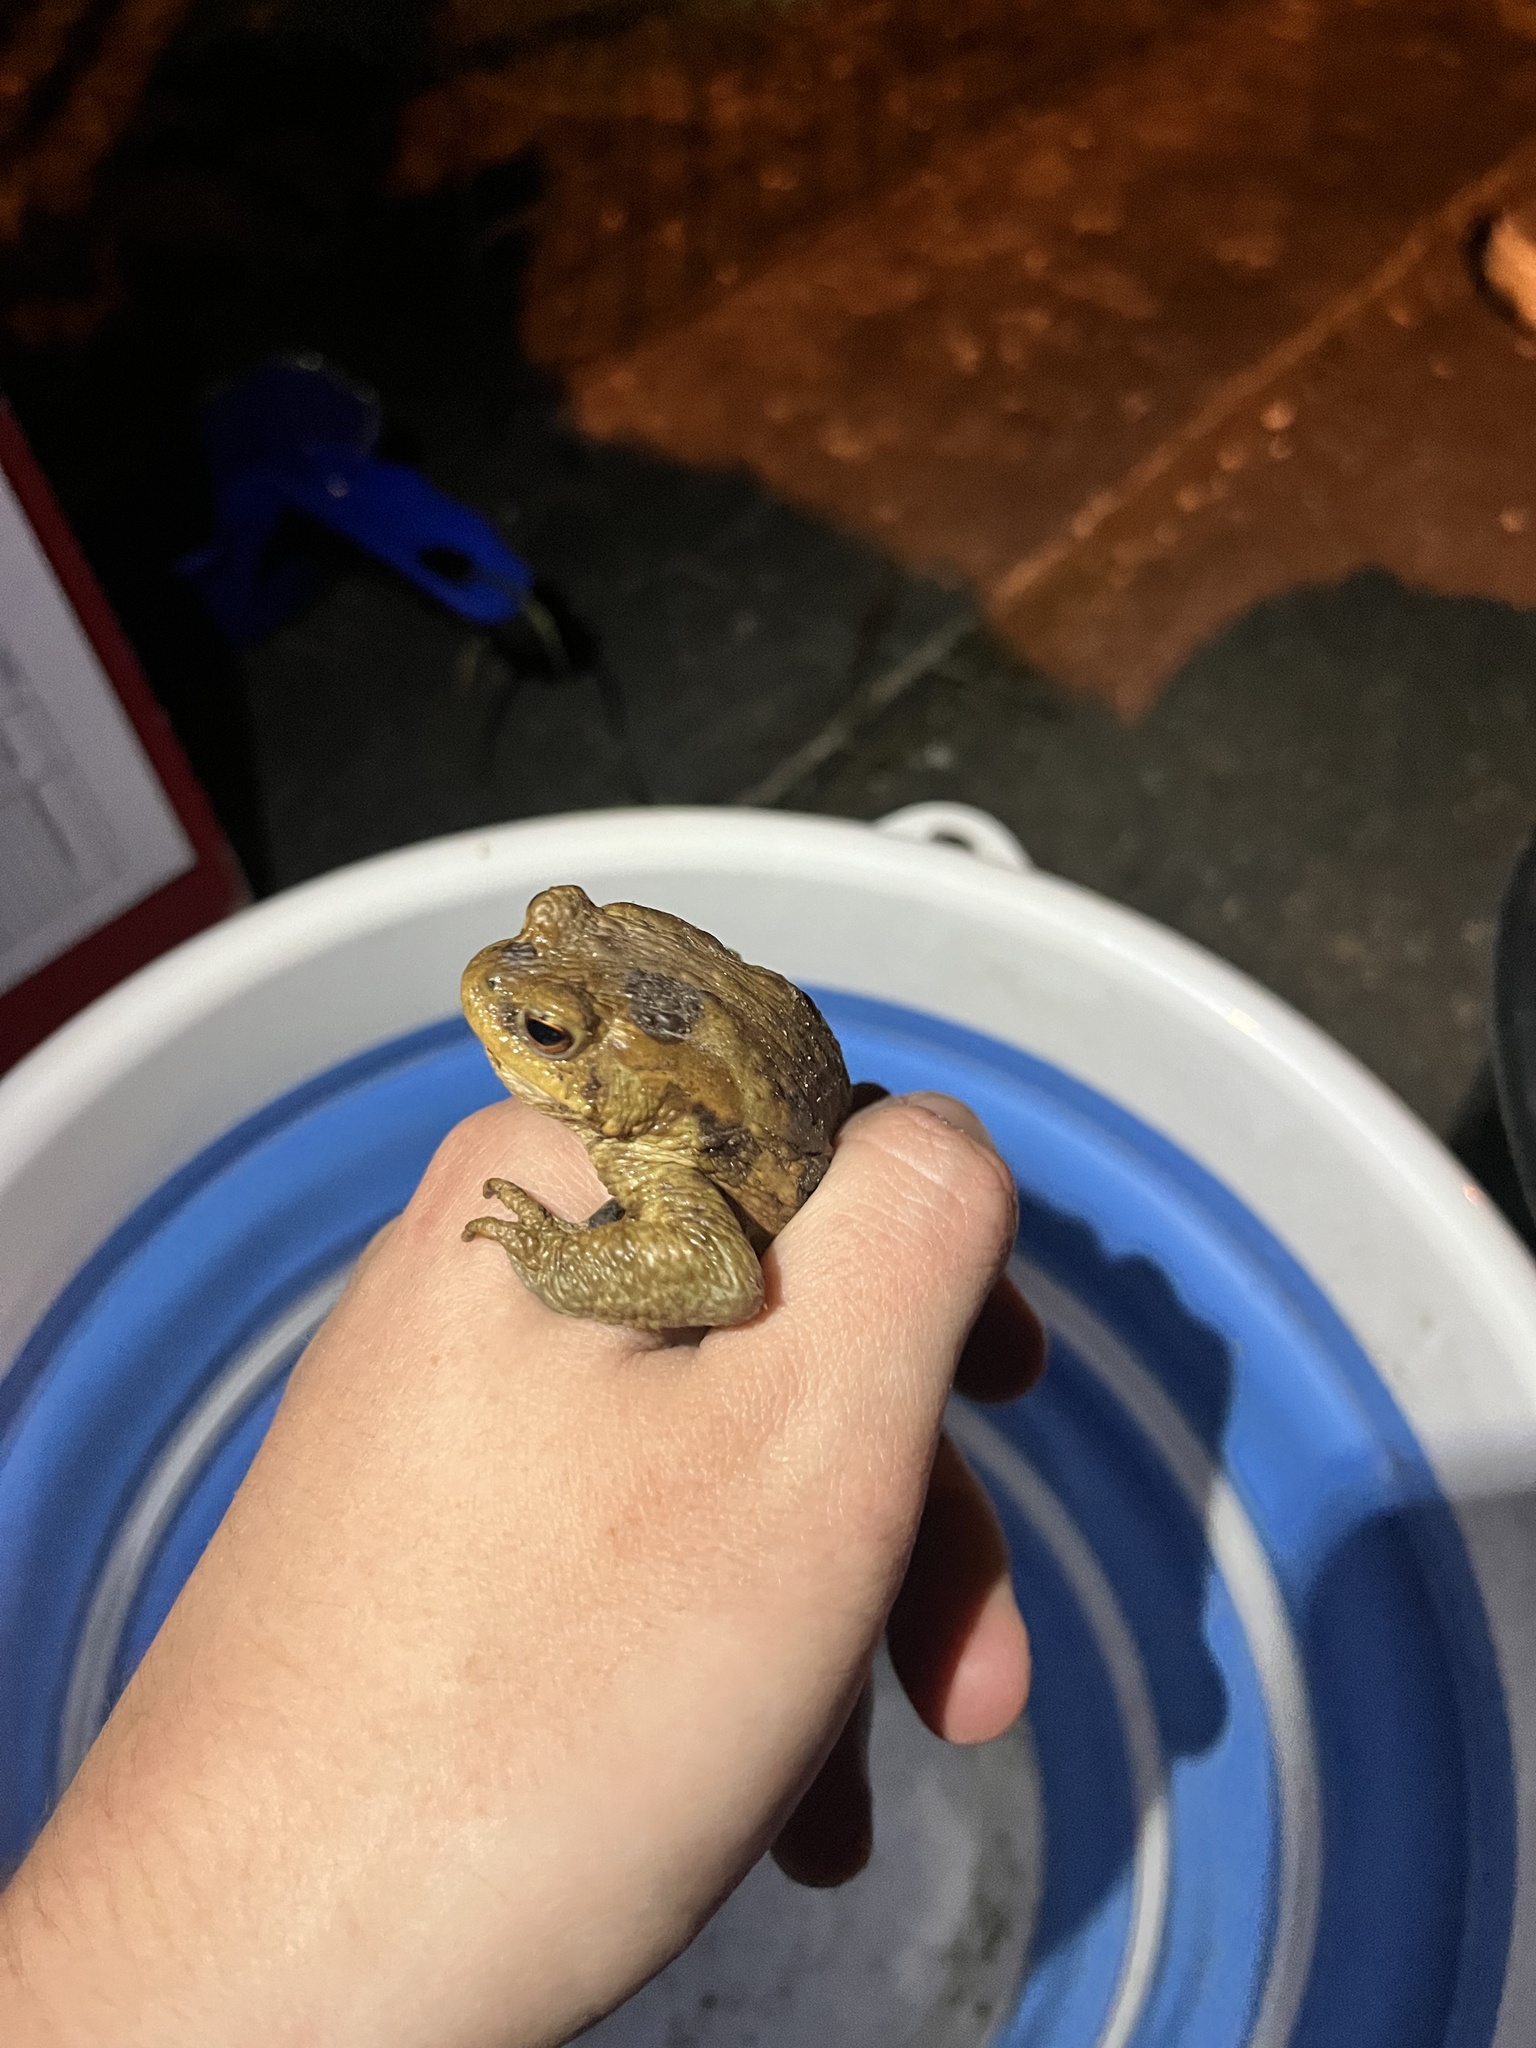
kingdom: Animalia
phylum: Chordata
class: Amphibia
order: Anura
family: Bufonidae
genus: Bufo
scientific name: Bufo bufo
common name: Common toad
